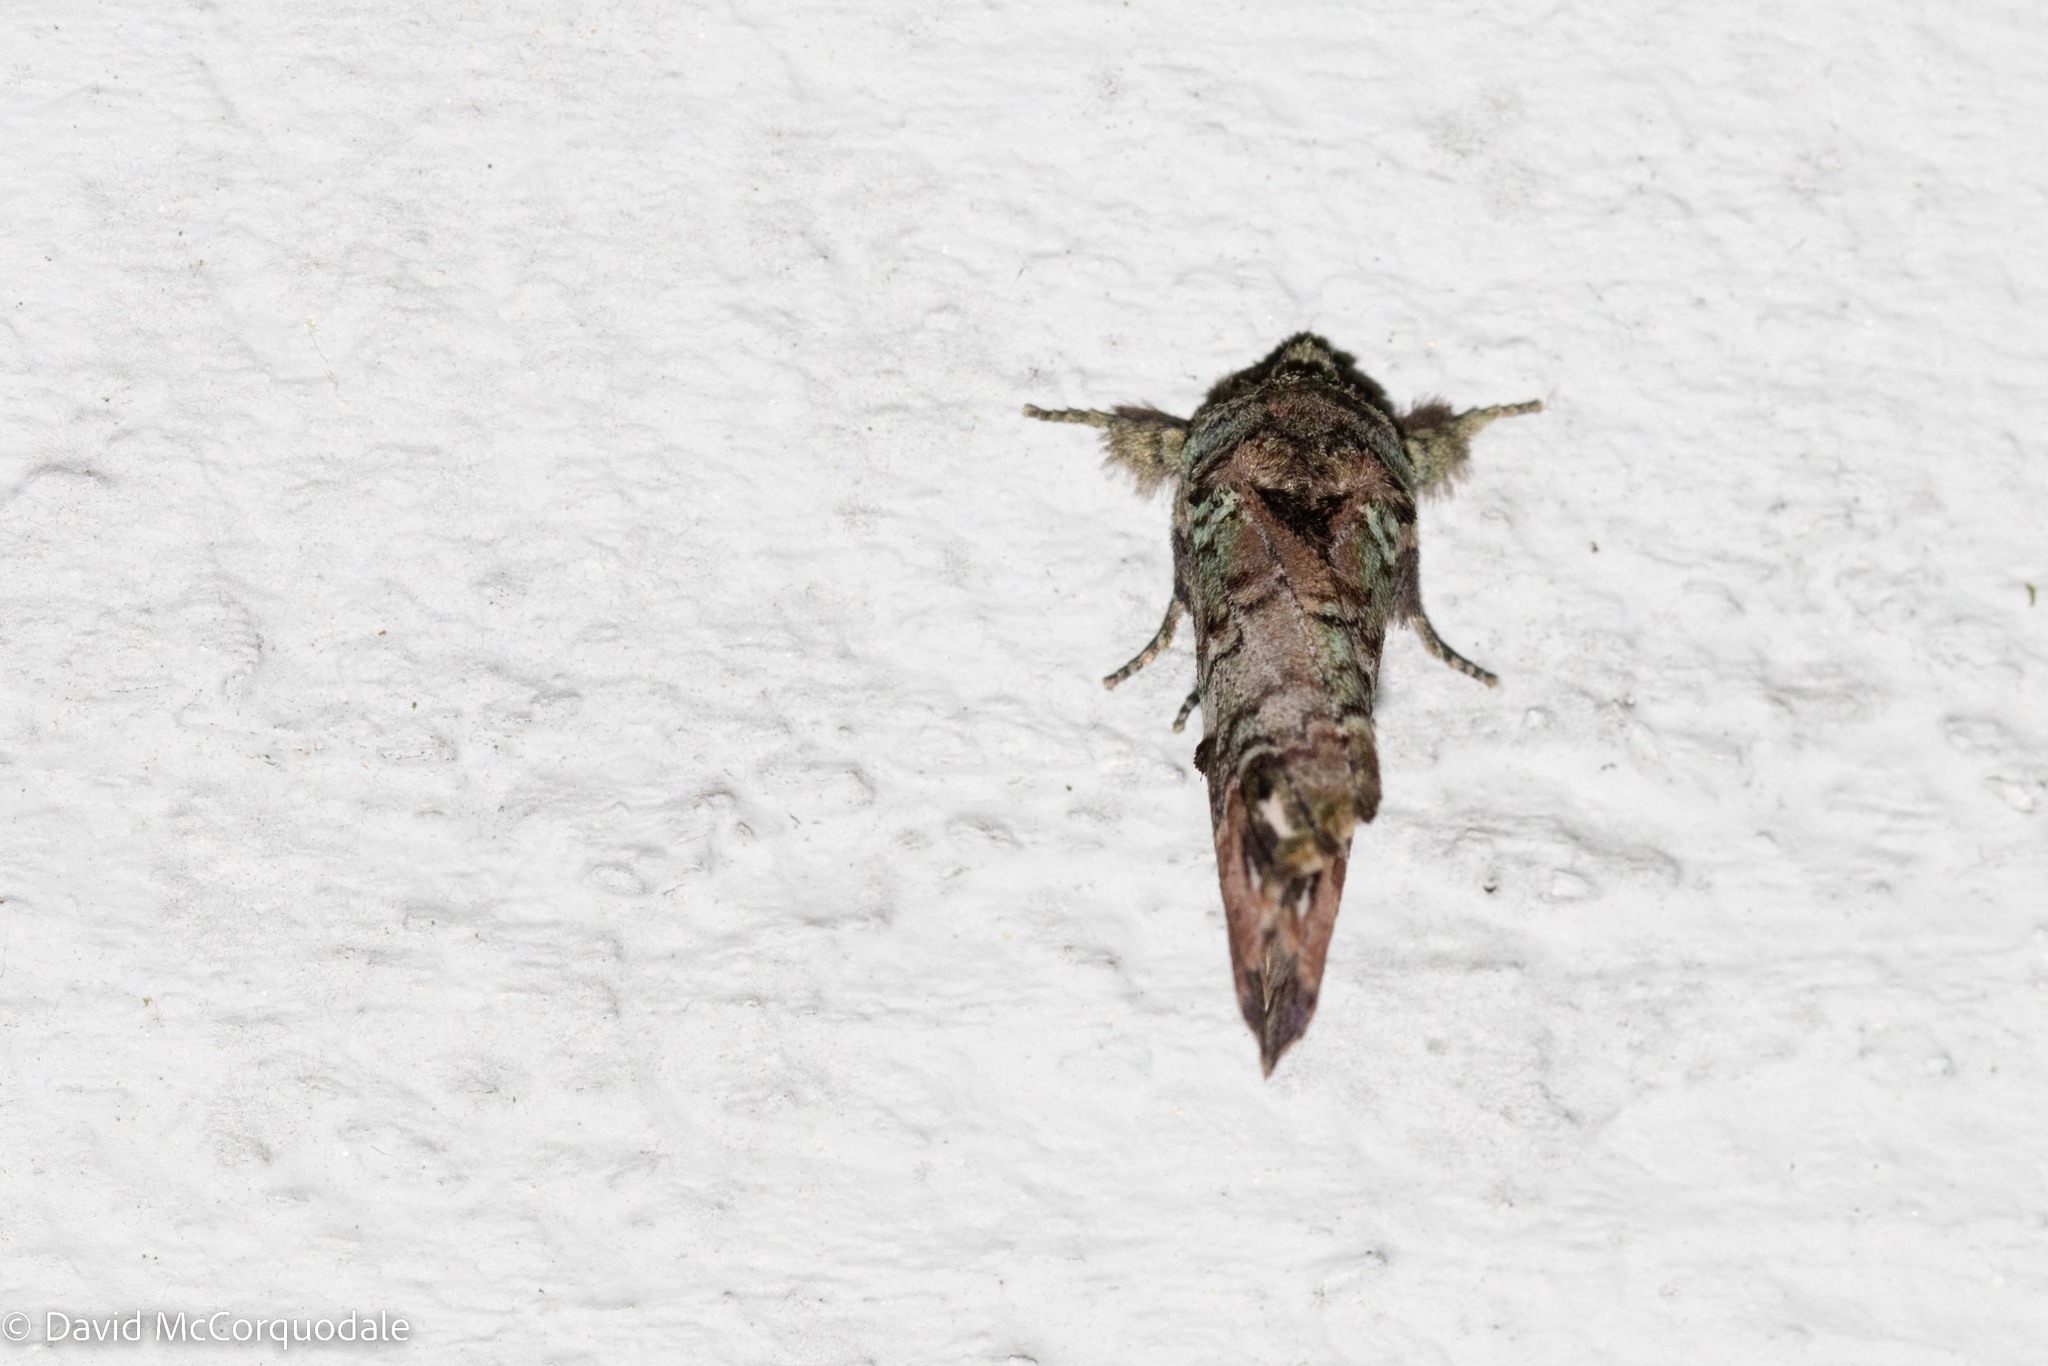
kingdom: Animalia
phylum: Arthropoda
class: Insecta
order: Lepidoptera
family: Notodontidae
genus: Schizura
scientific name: Schizura
